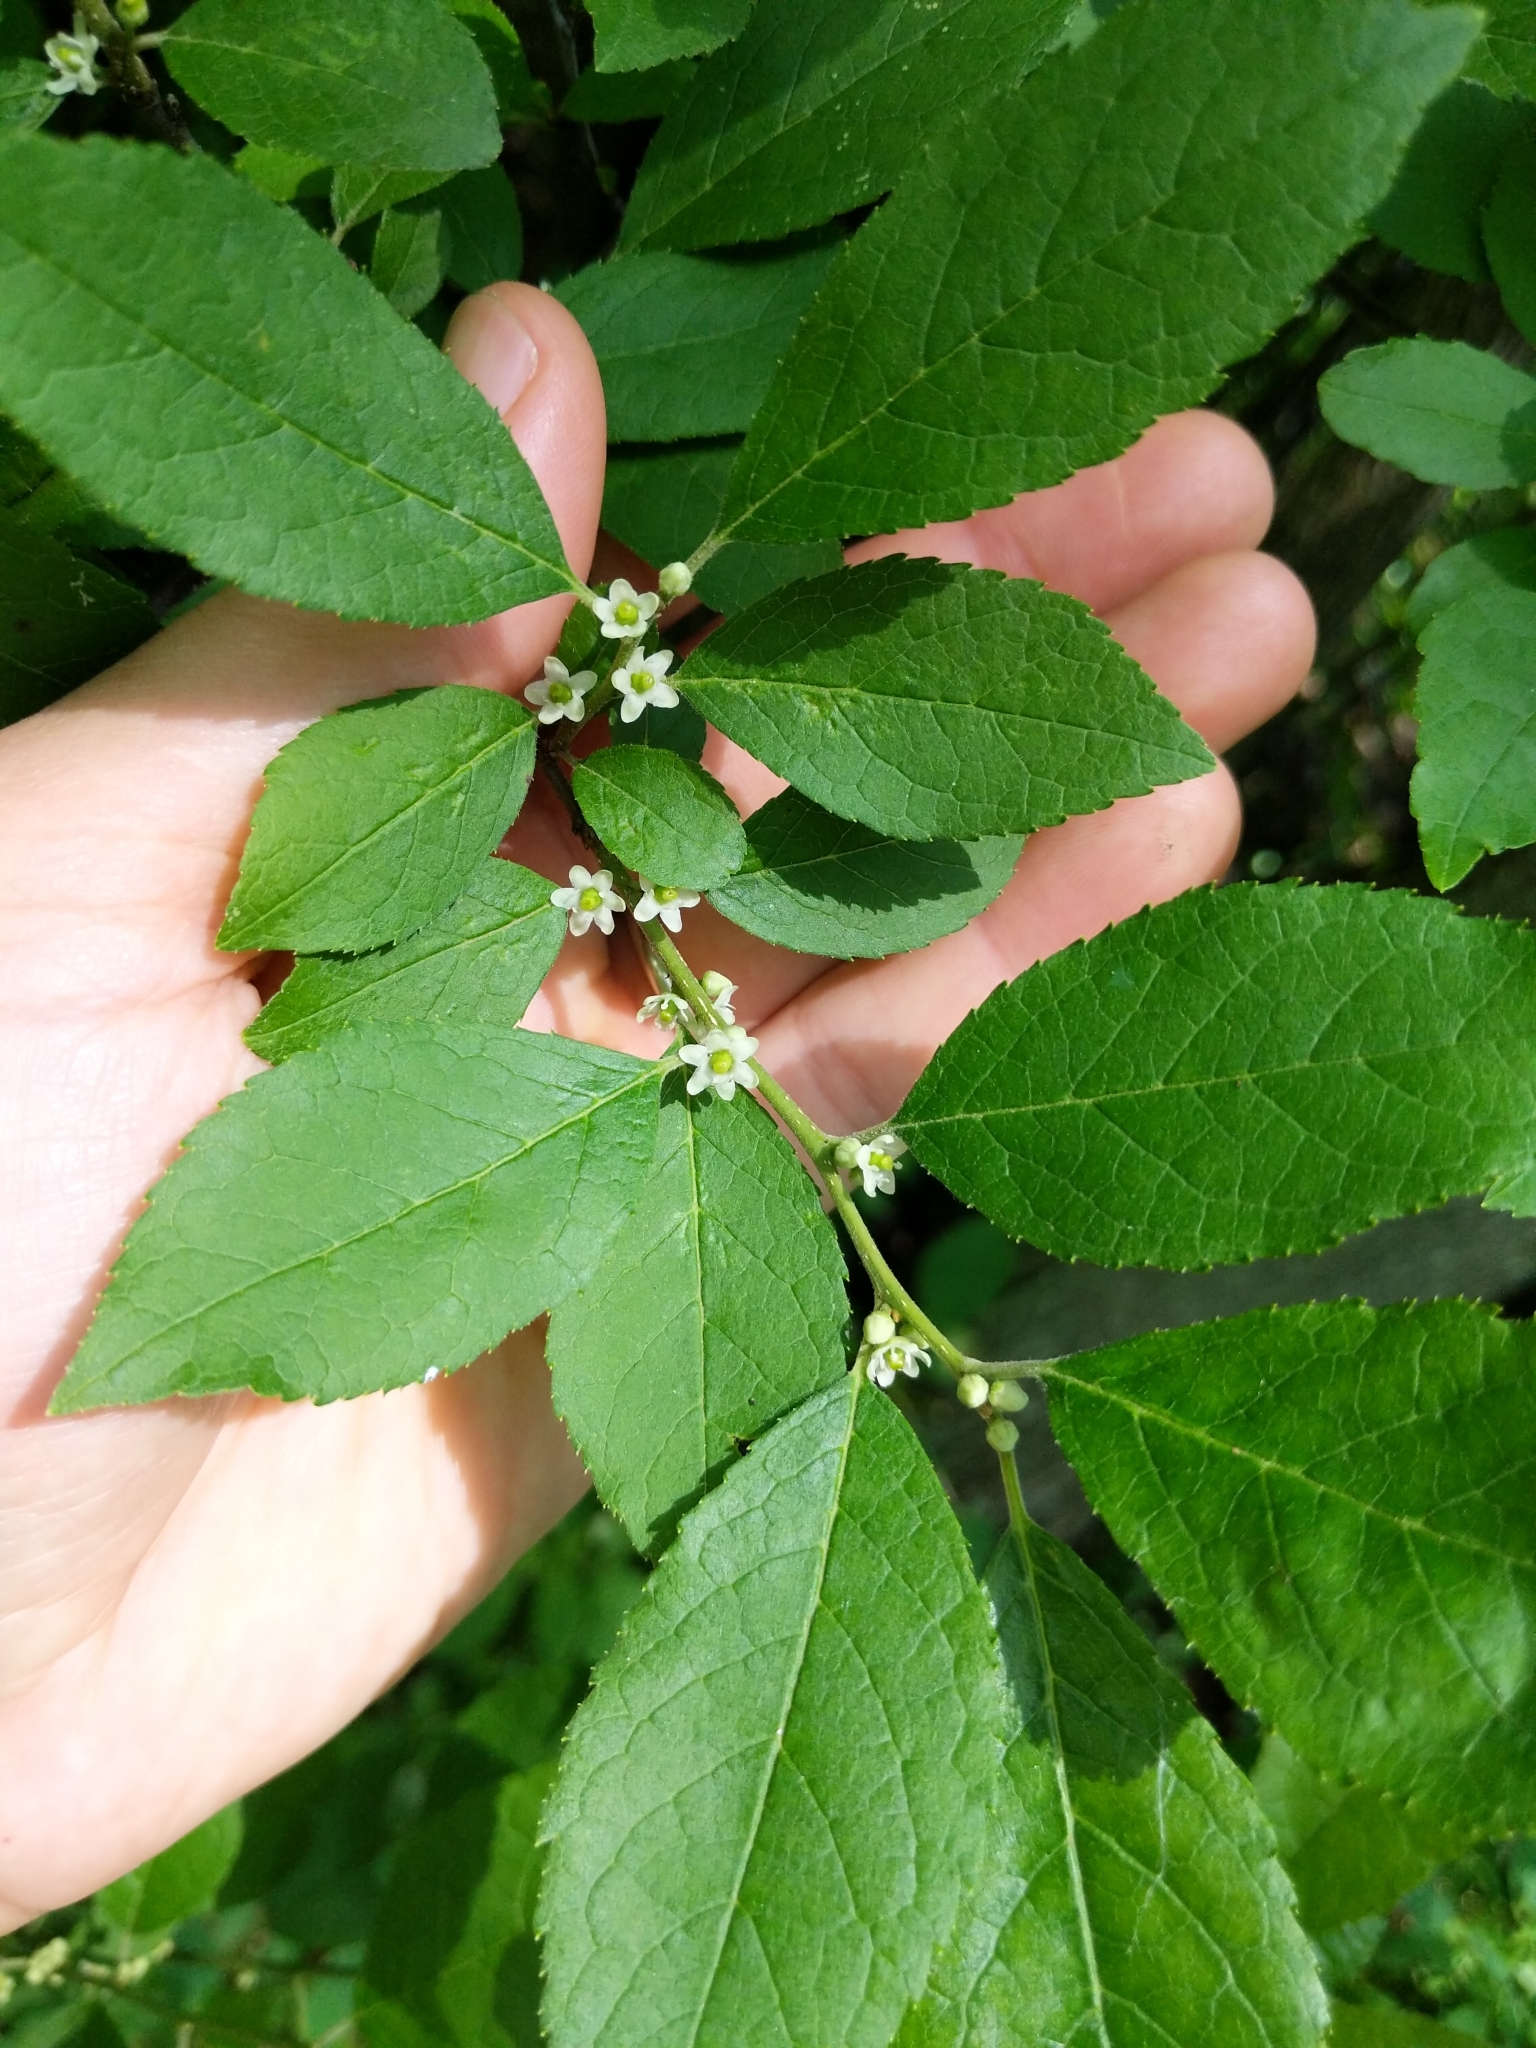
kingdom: Plantae
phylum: Tracheophyta
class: Magnoliopsida
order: Aquifoliales
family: Aquifoliaceae
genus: Ilex
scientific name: Ilex verticillata
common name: Virginia winterberry
